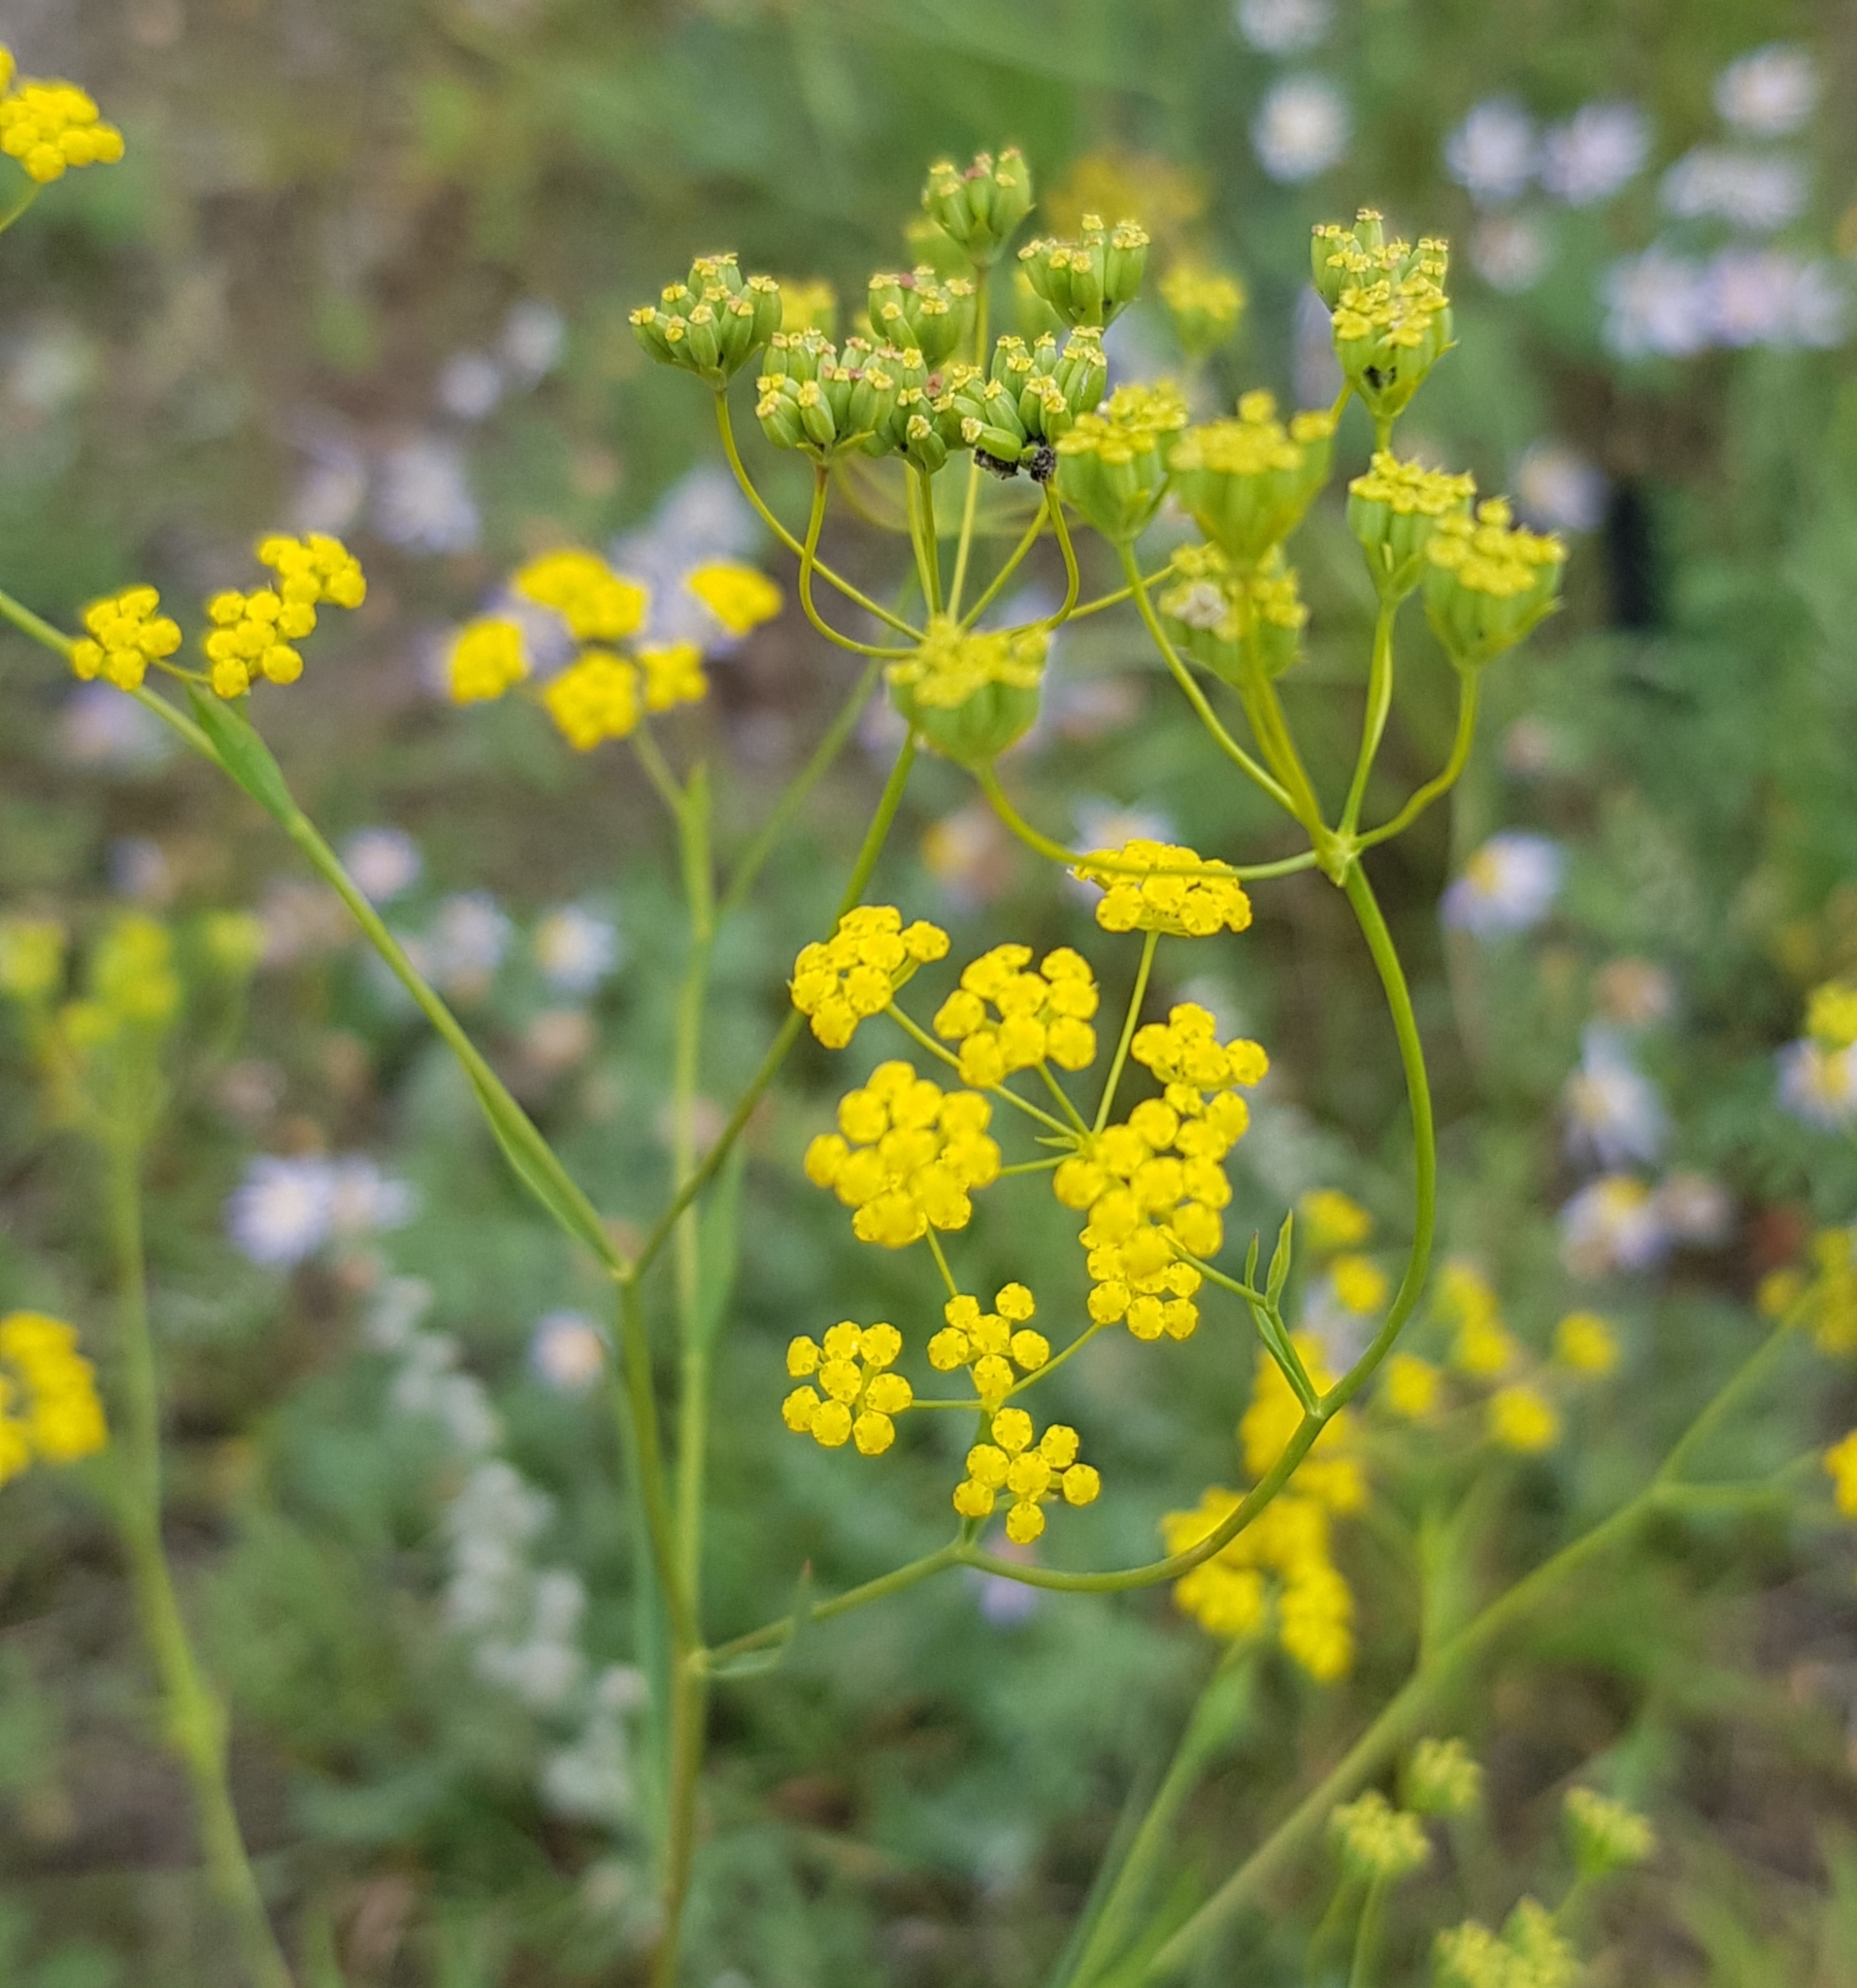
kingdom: Plantae
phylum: Tracheophyta
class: Magnoliopsida
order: Apiales
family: Apiaceae
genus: Bupleurum
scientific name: Bupleurum scorzonerifolium
